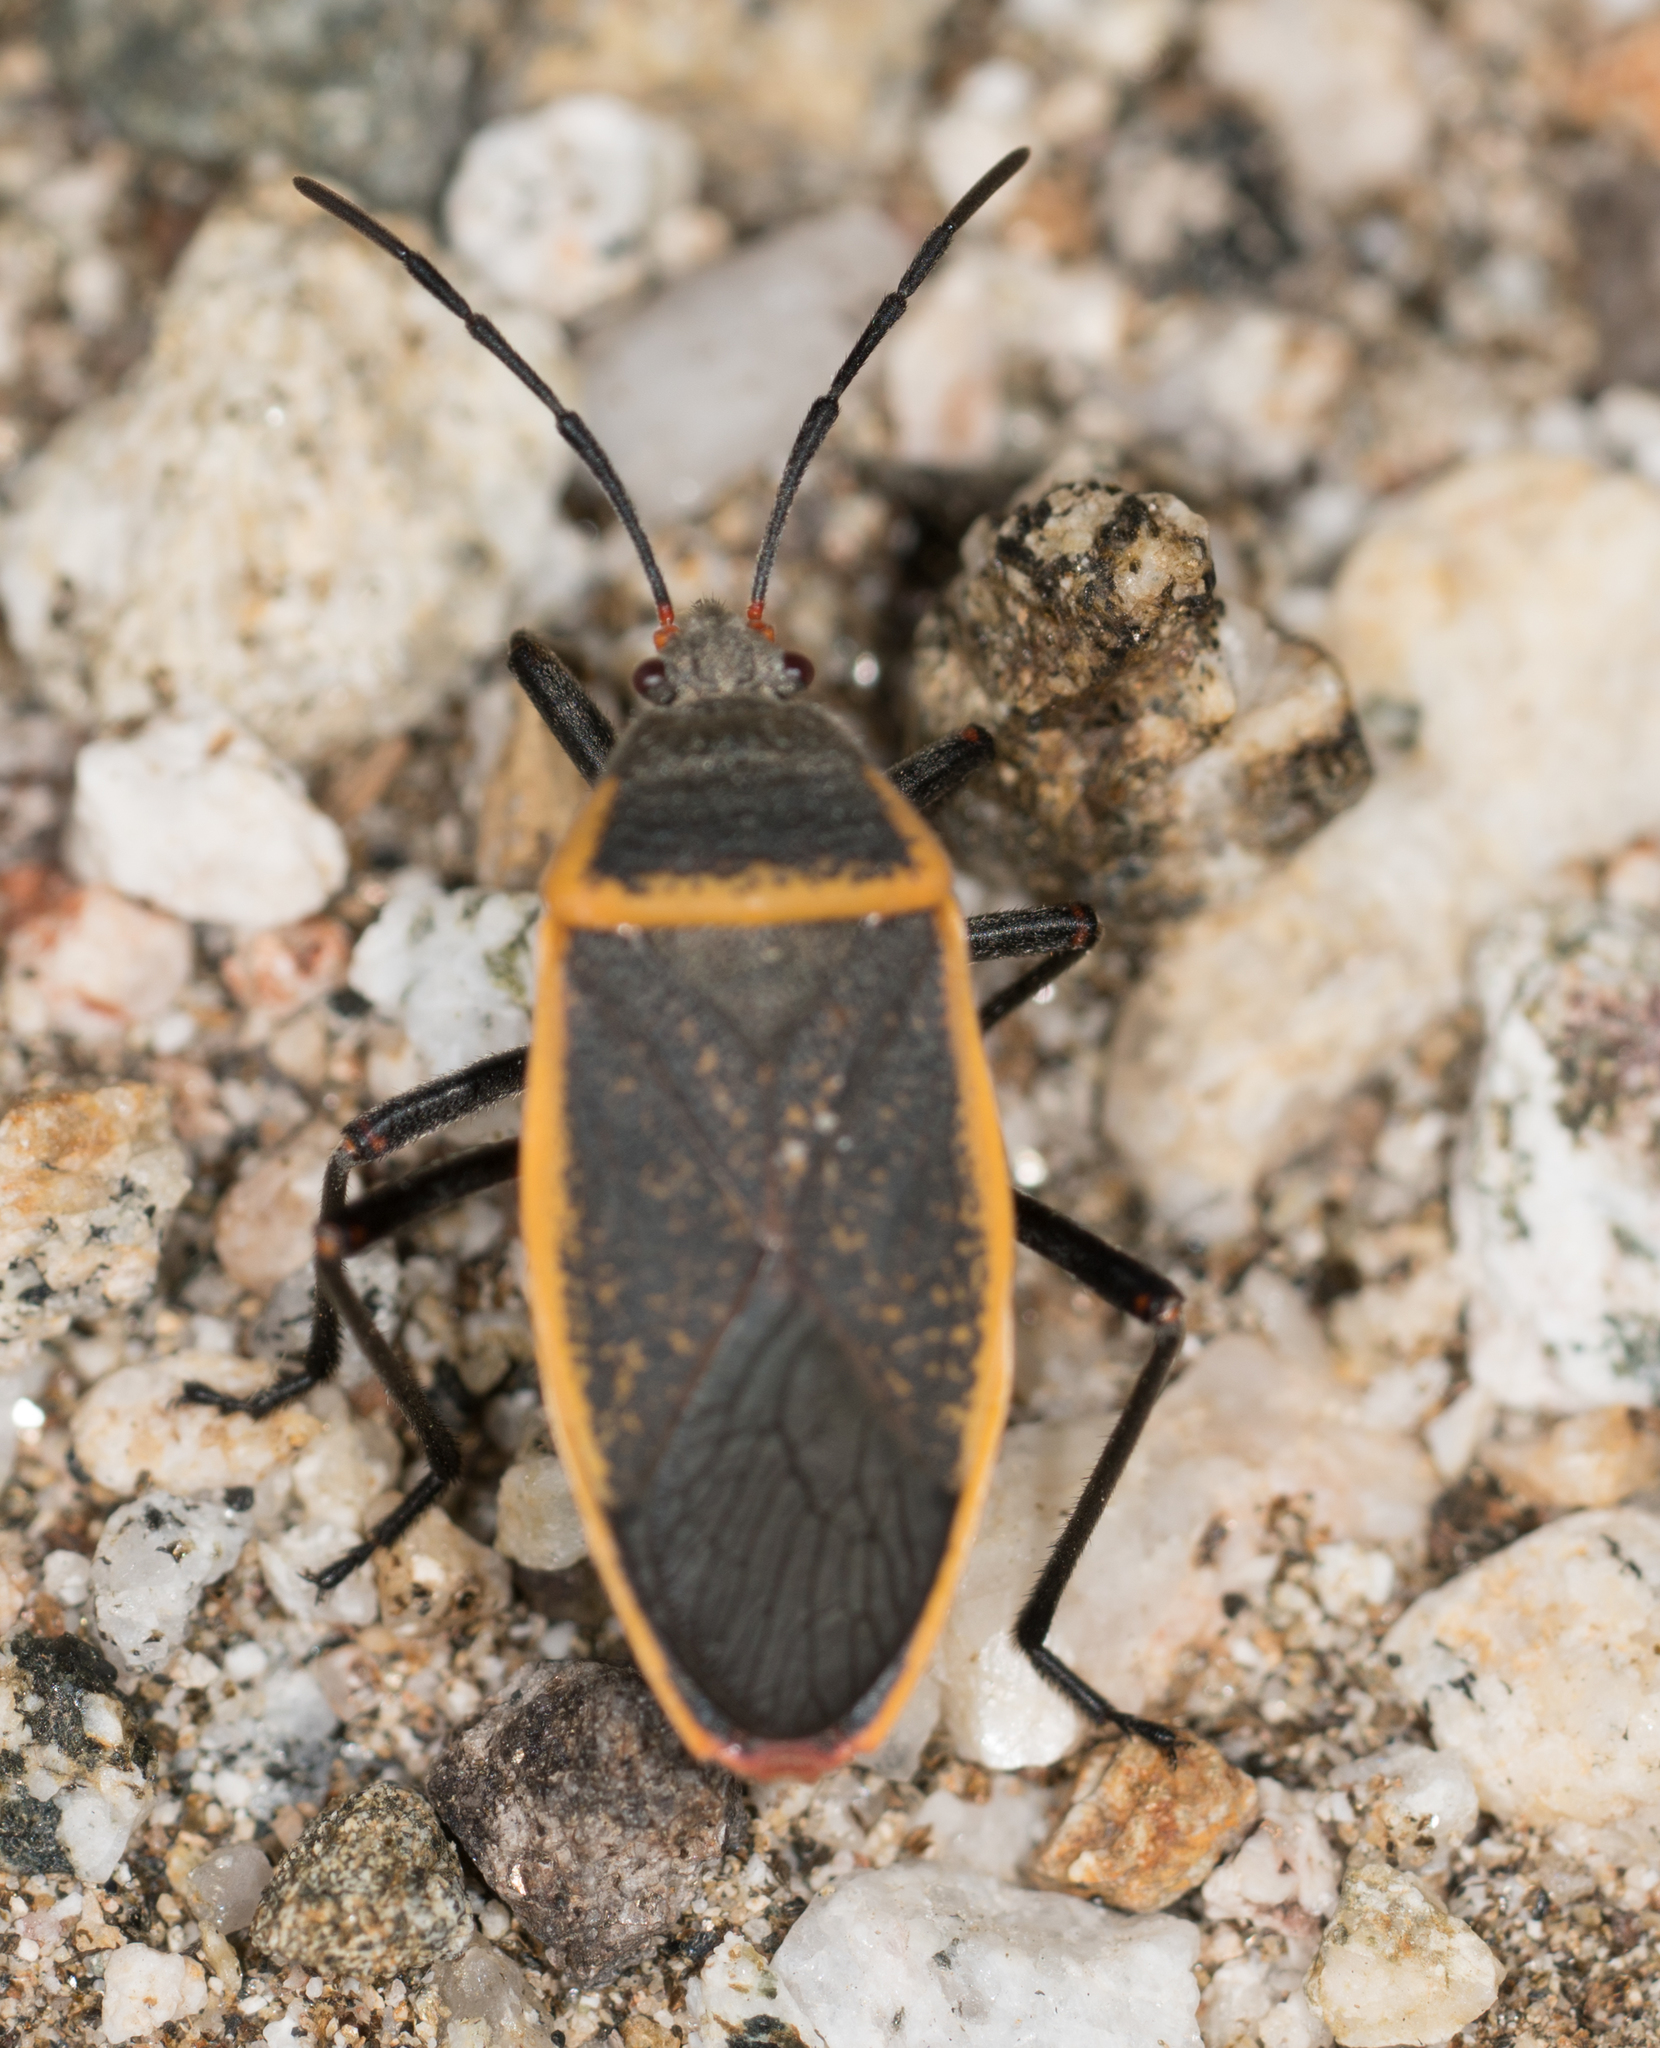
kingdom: Animalia
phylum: Arthropoda
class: Insecta
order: Hemiptera
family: Largidae
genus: Largus
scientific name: Largus californicus
